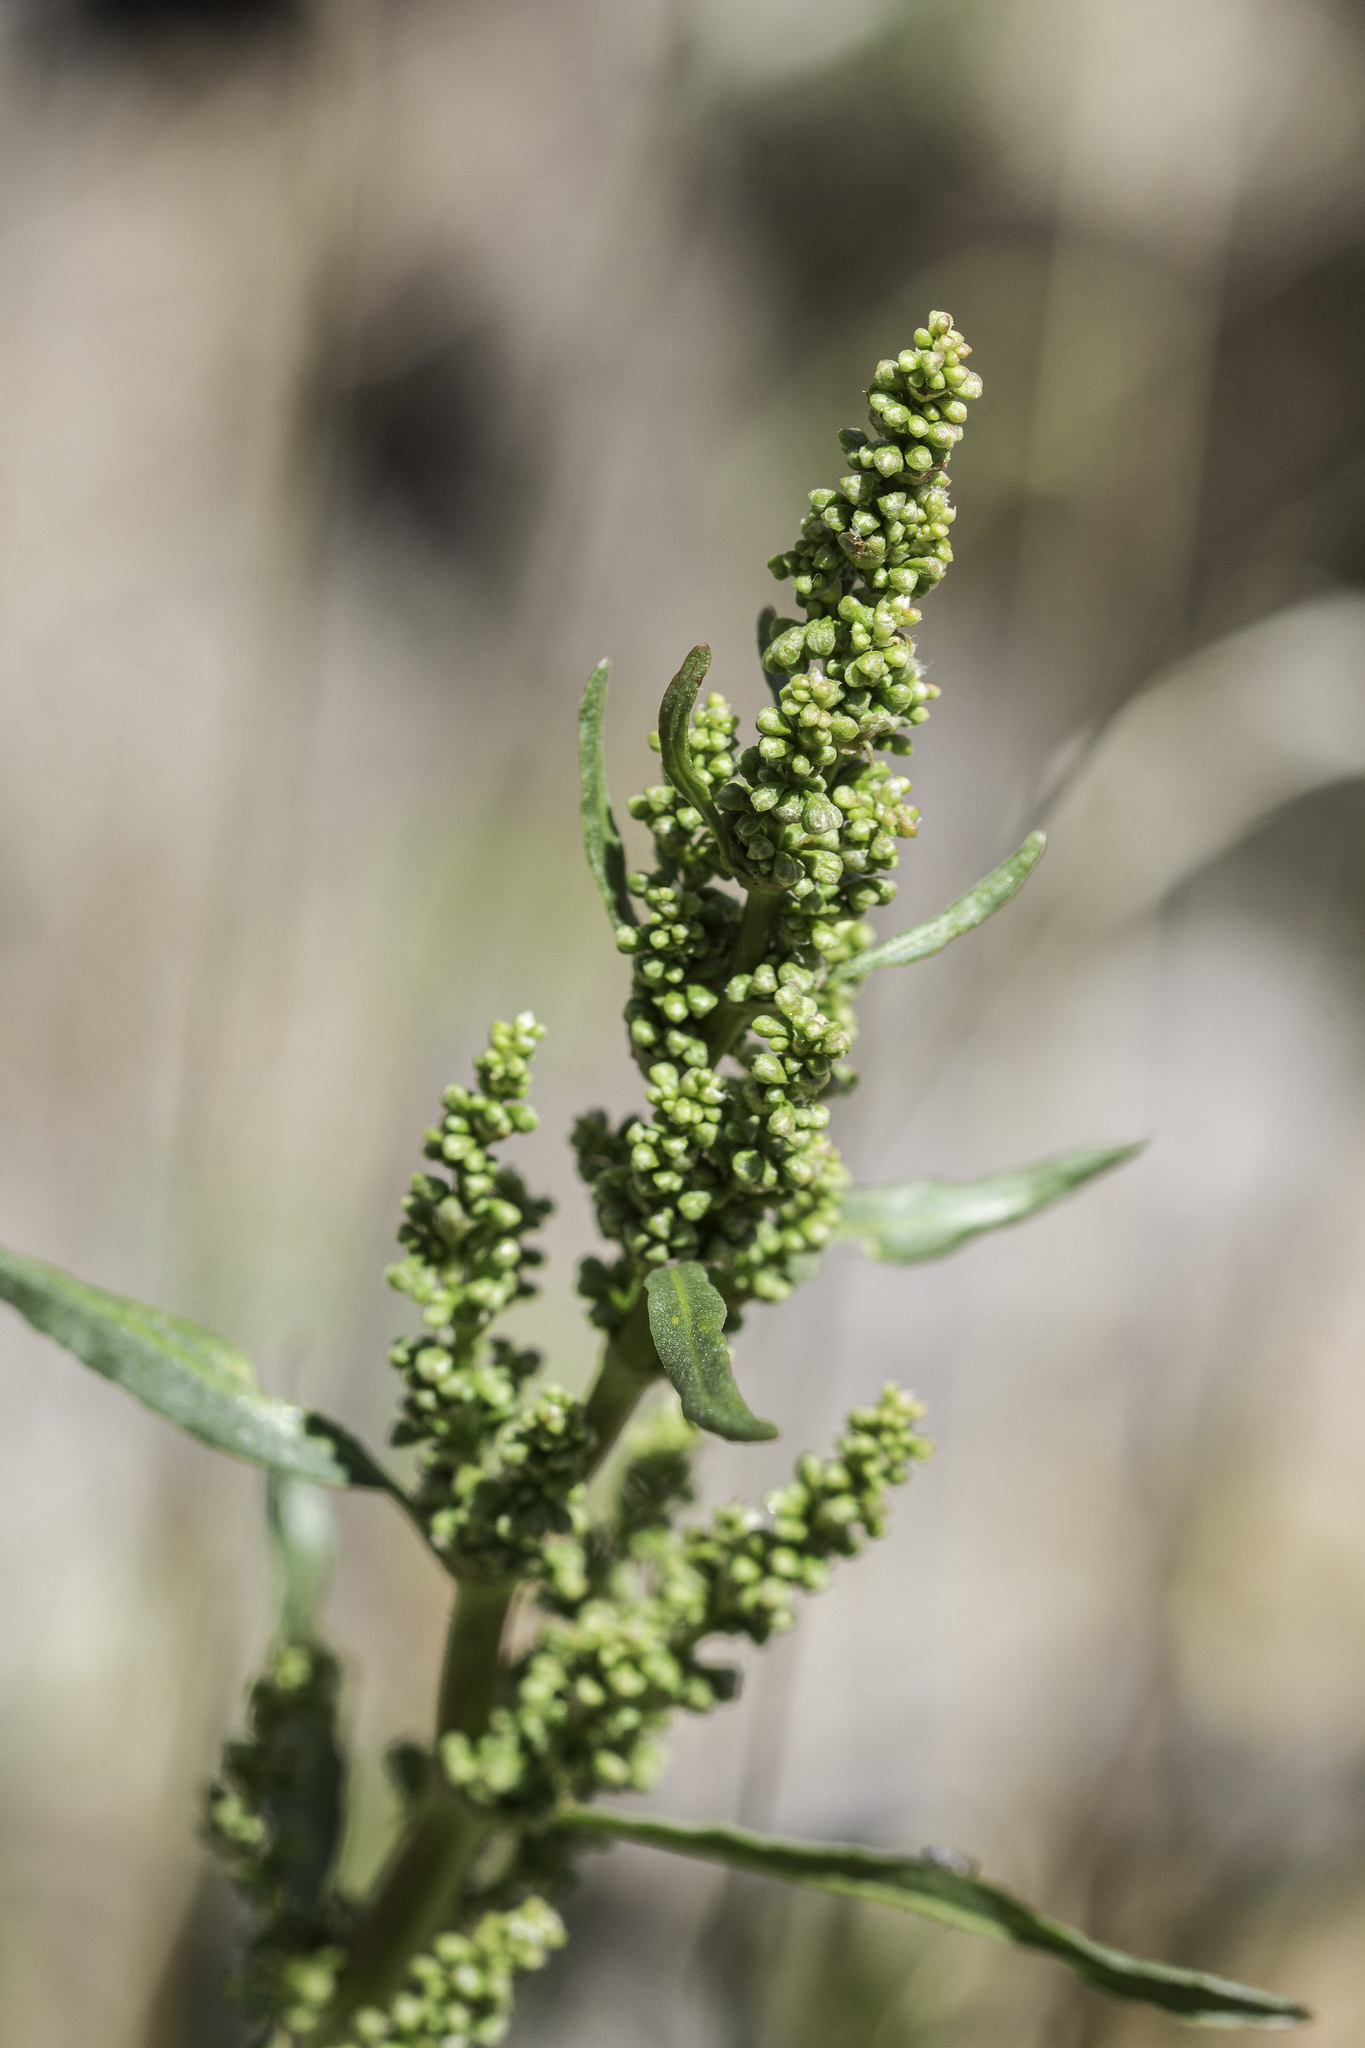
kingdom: Plantae
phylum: Tracheophyta
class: Magnoliopsida
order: Caryophyllales
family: Polygonaceae
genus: Rumex
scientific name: Rumex crispus
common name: Curled dock
